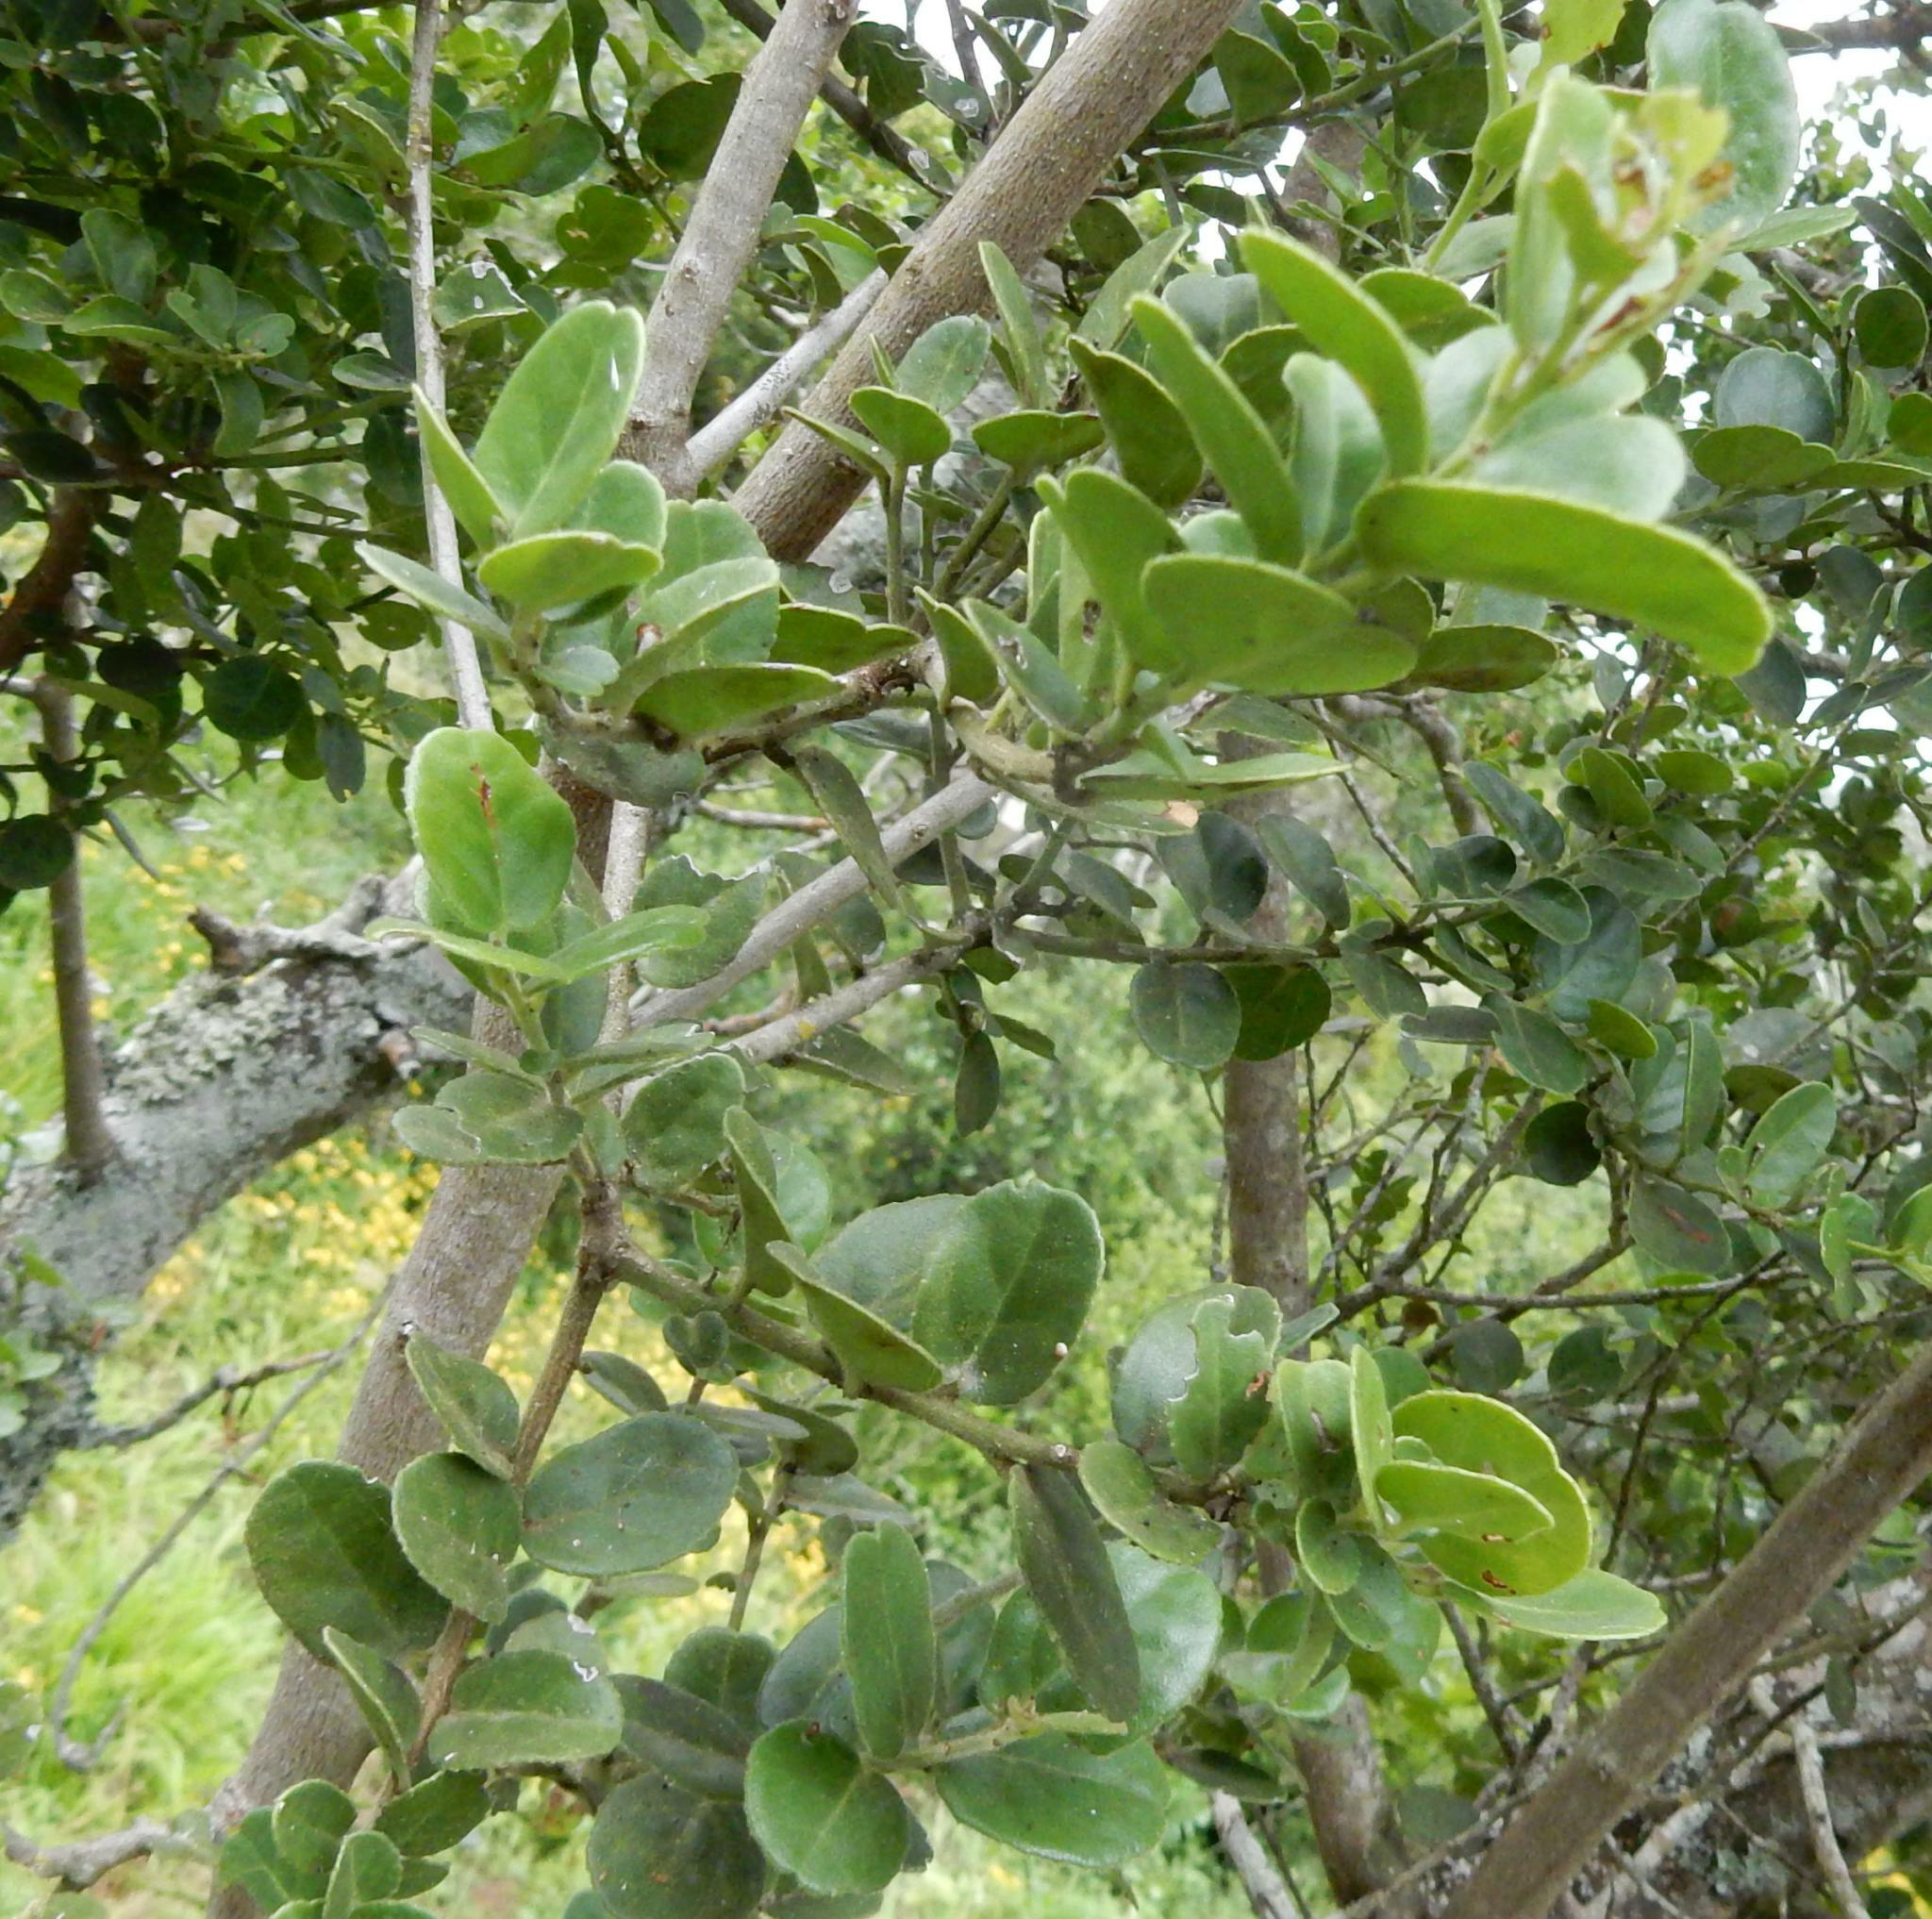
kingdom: Plantae
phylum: Tracheophyta
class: Magnoliopsida
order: Celastrales
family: Celastraceae
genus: Mystroxylon
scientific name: Mystroxylon aethiopicum
